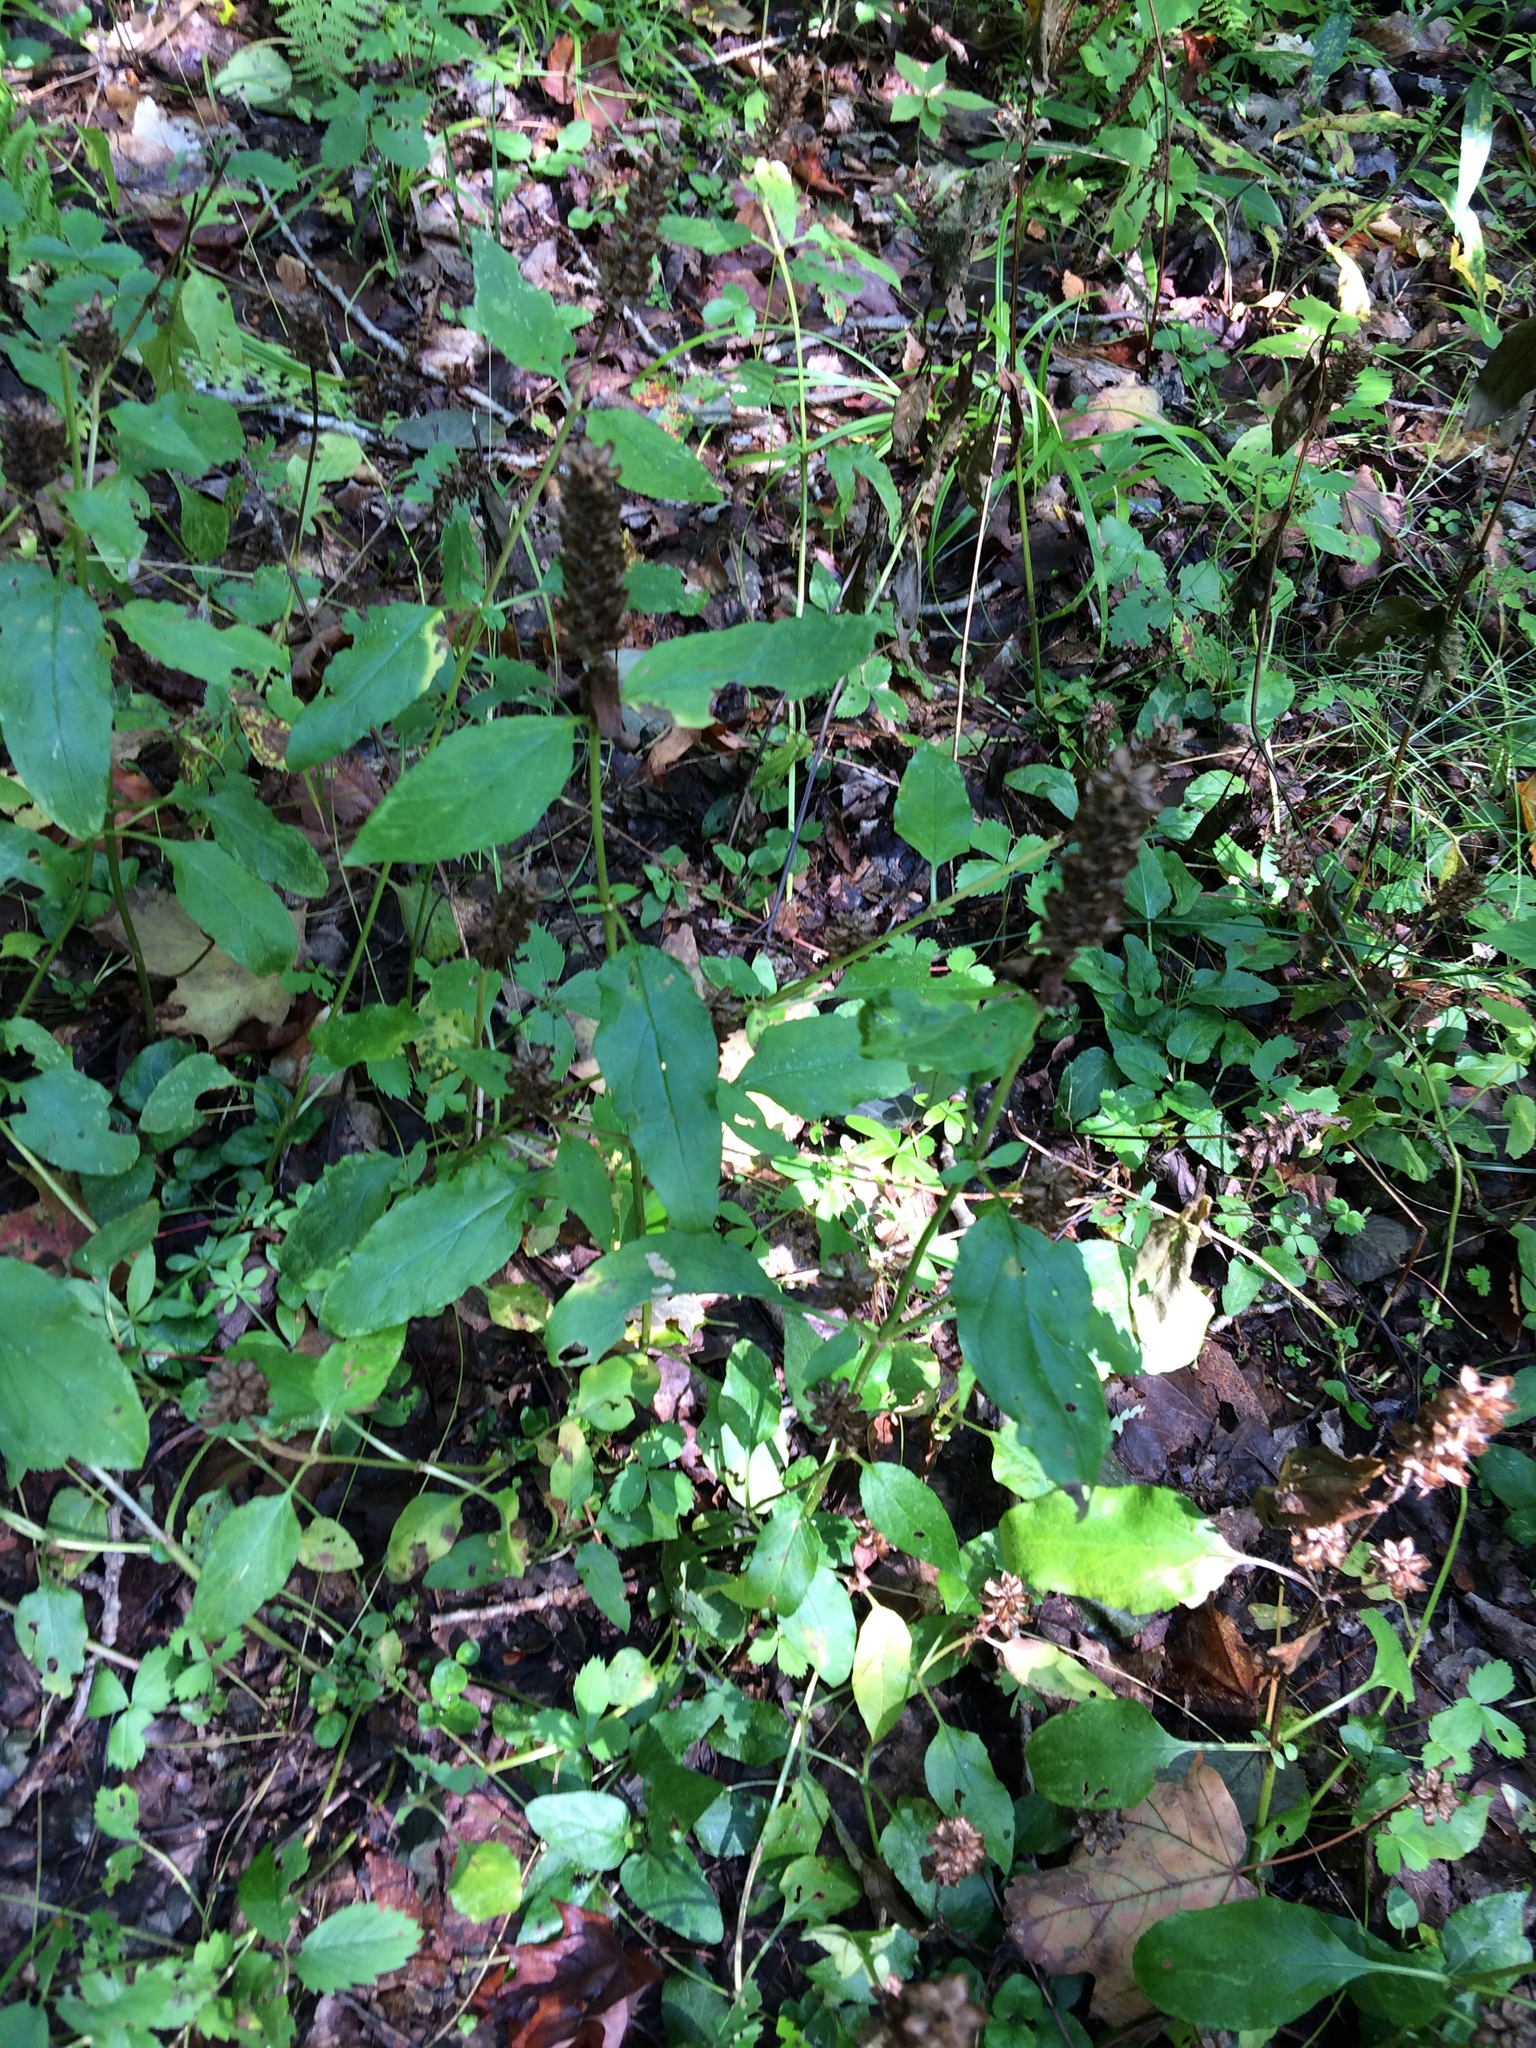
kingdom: Plantae
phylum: Tracheophyta
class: Magnoliopsida
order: Lamiales
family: Lamiaceae
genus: Prunella
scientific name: Prunella vulgaris
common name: Heal-all
